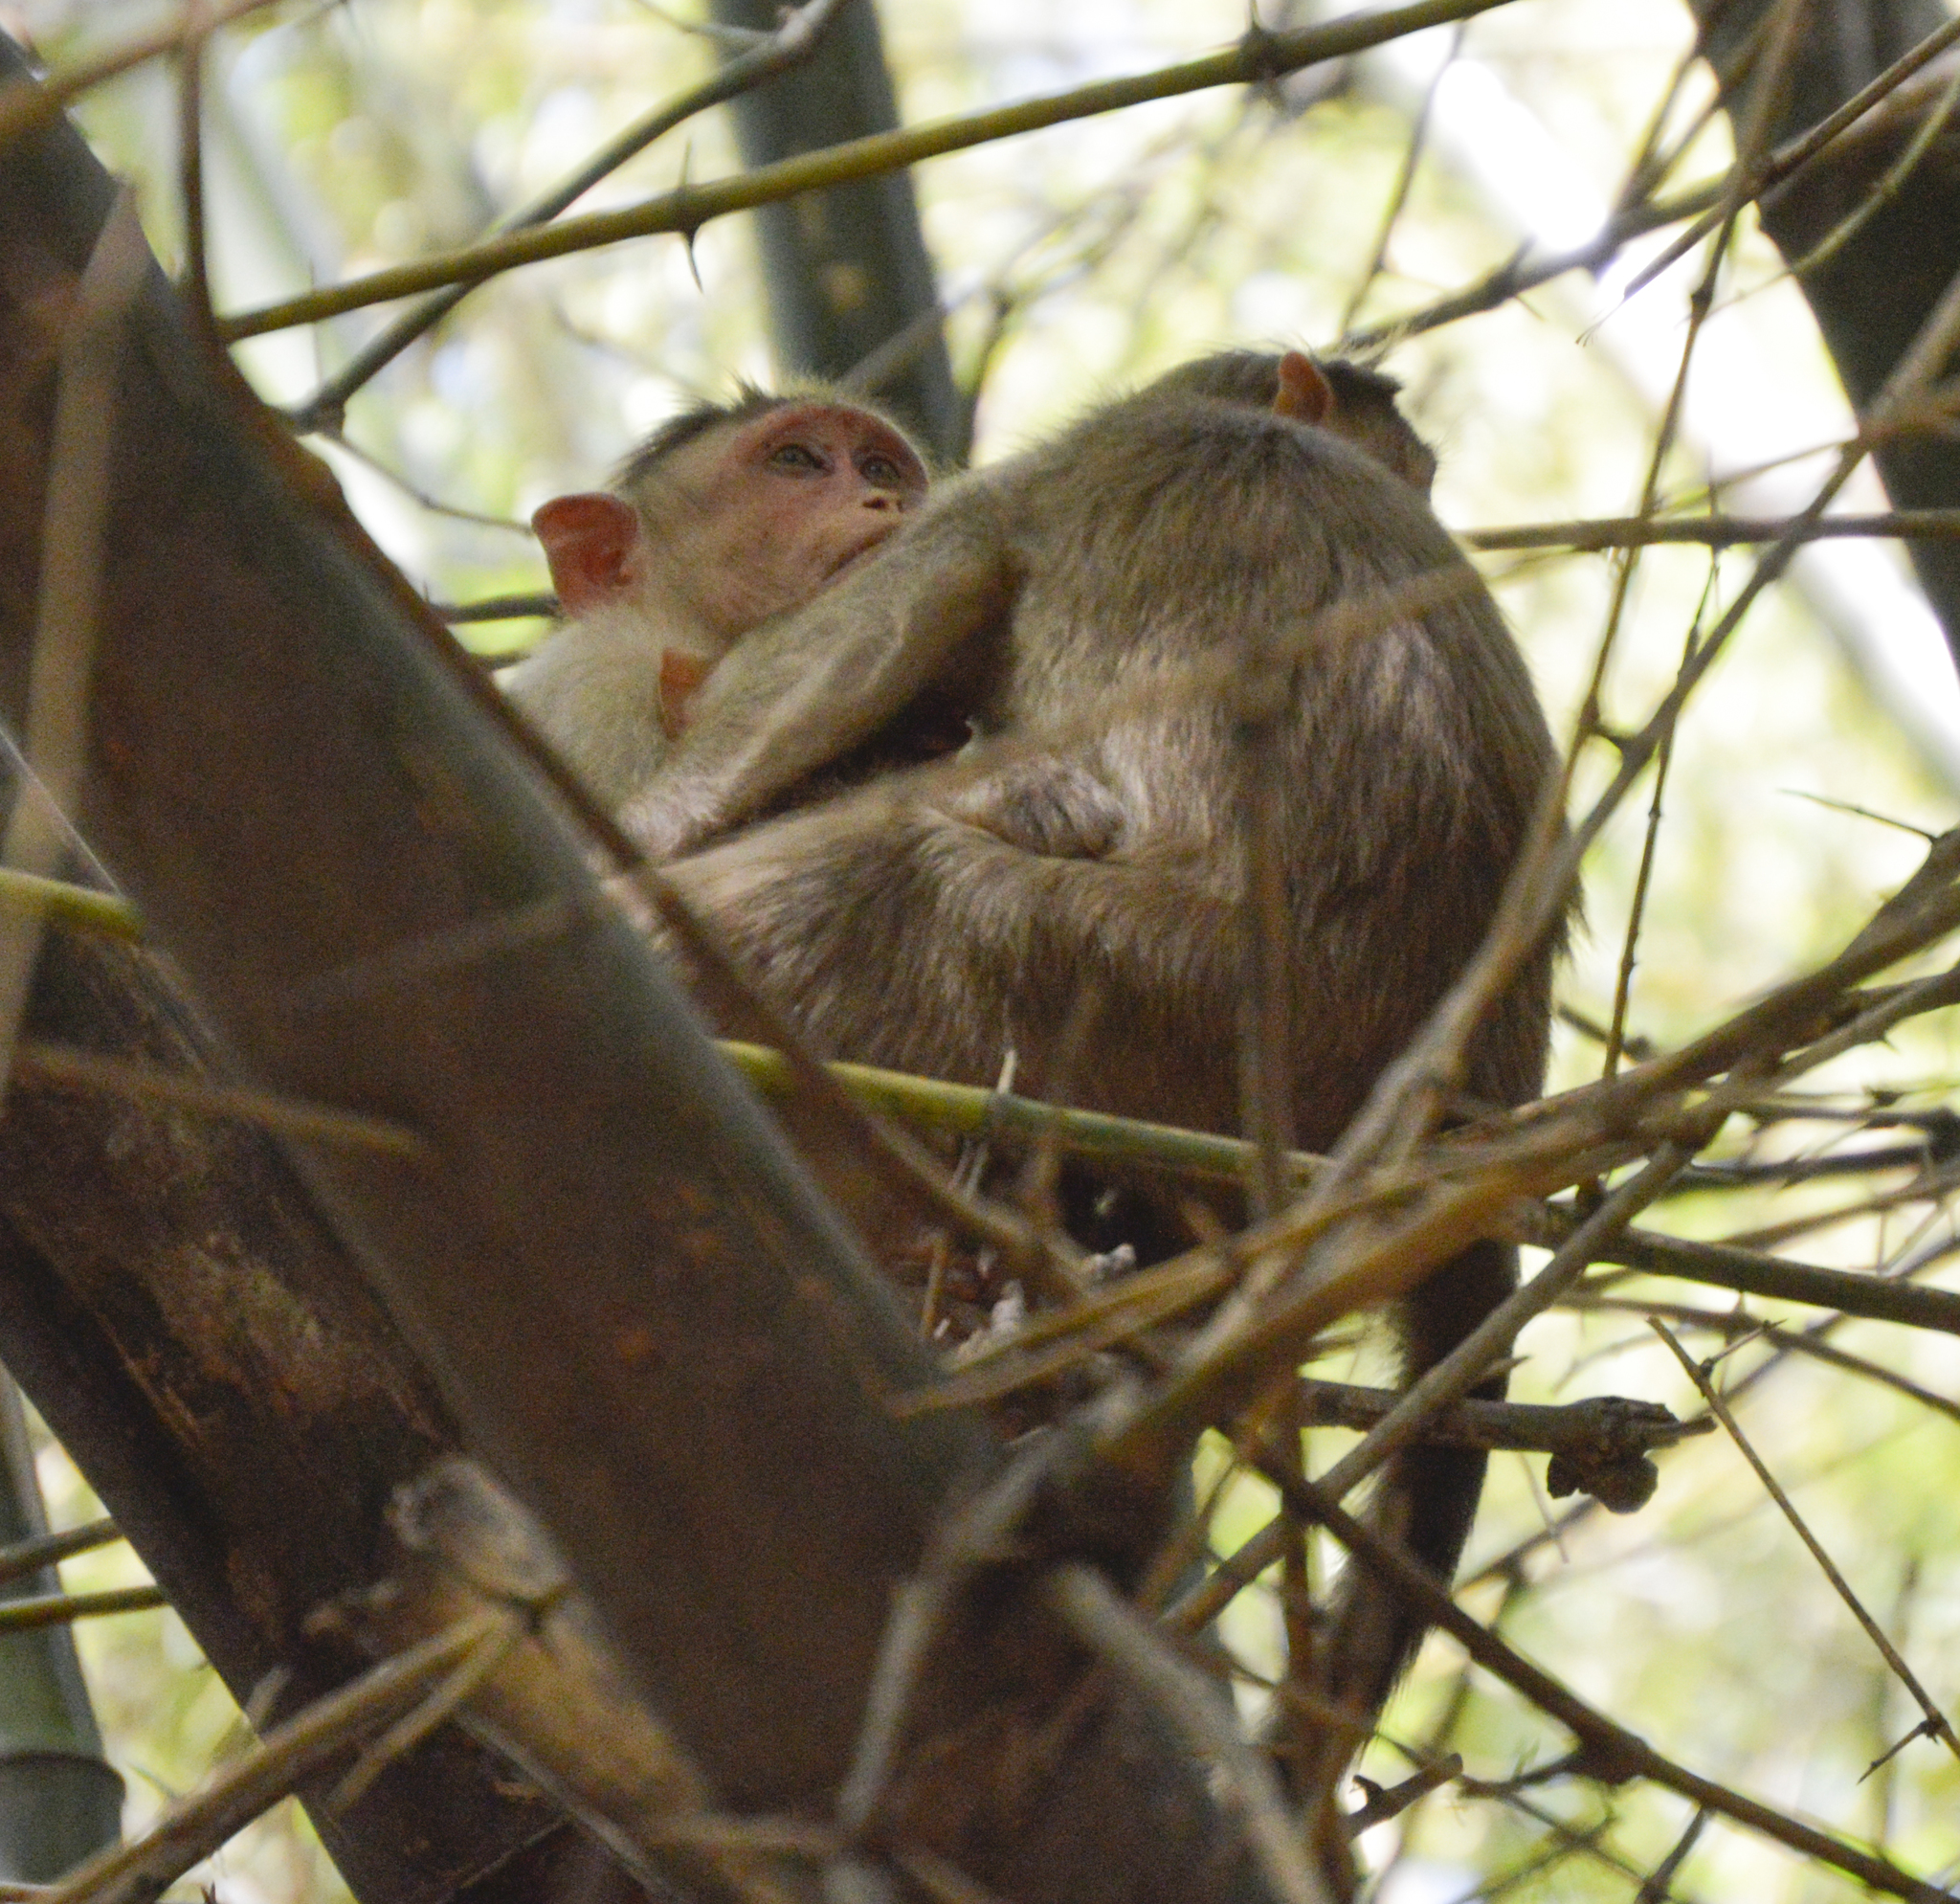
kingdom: Animalia
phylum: Chordata
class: Mammalia
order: Primates
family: Cercopithecidae
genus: Macaca
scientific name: Macaca radiata
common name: Bonnet macaque
